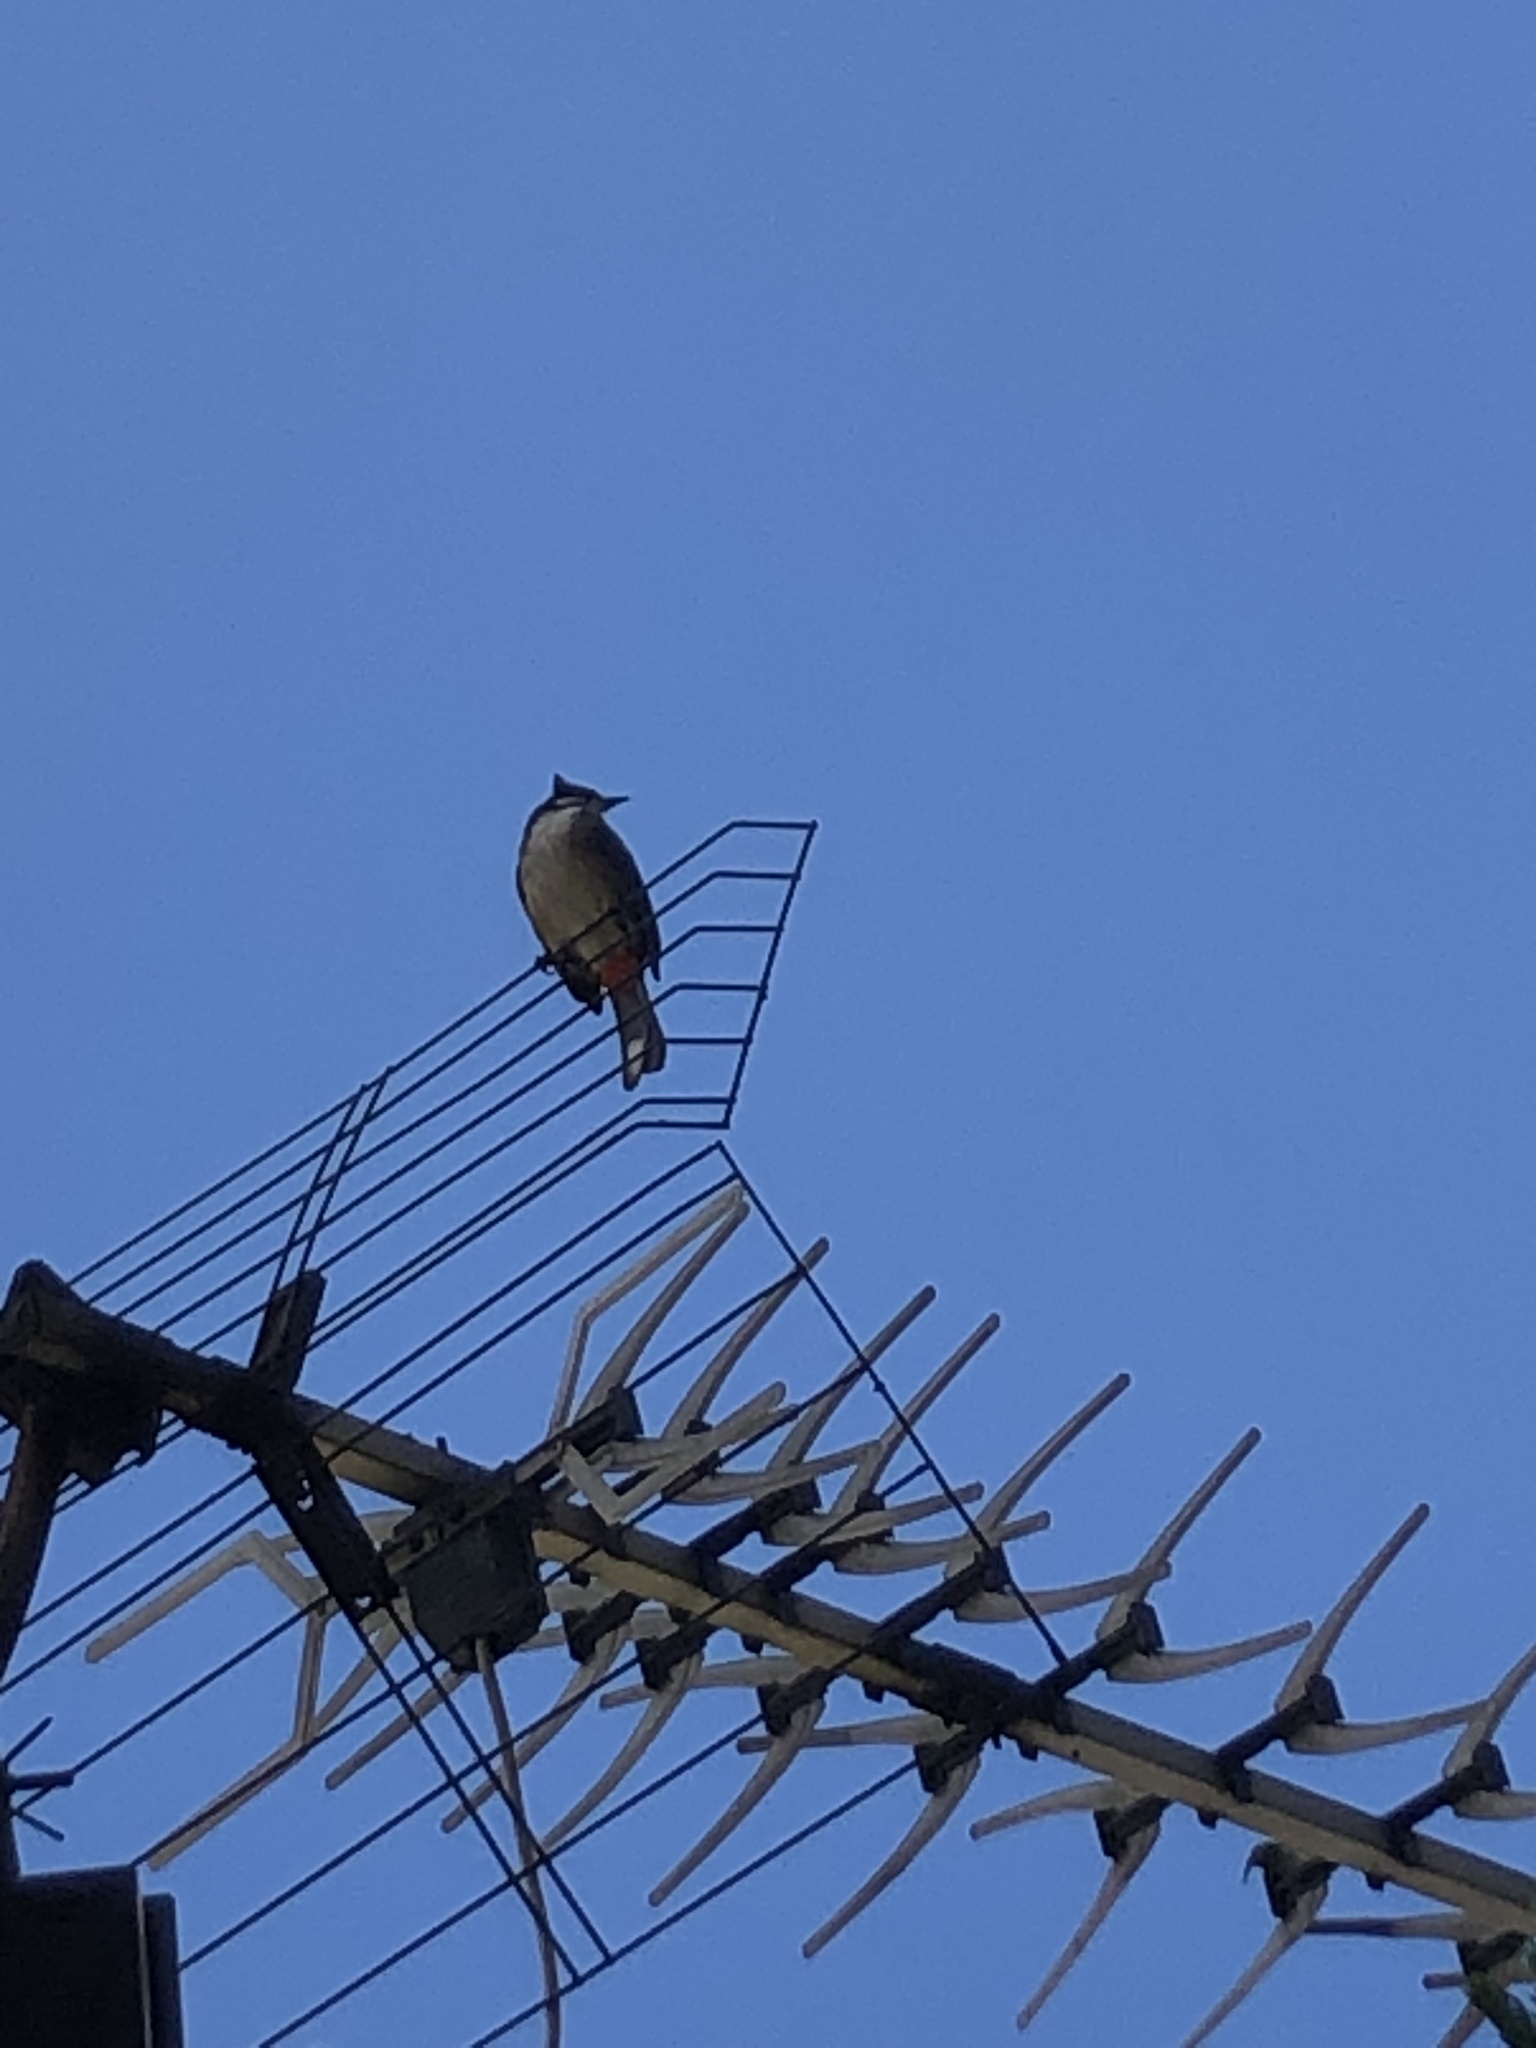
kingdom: Animalia
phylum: Chordata
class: Aves
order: Passeriformes
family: Pycnonotidae
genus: Pycnonotus
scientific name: Pycnonotus jocosus
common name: Red-whiskered bulbul
